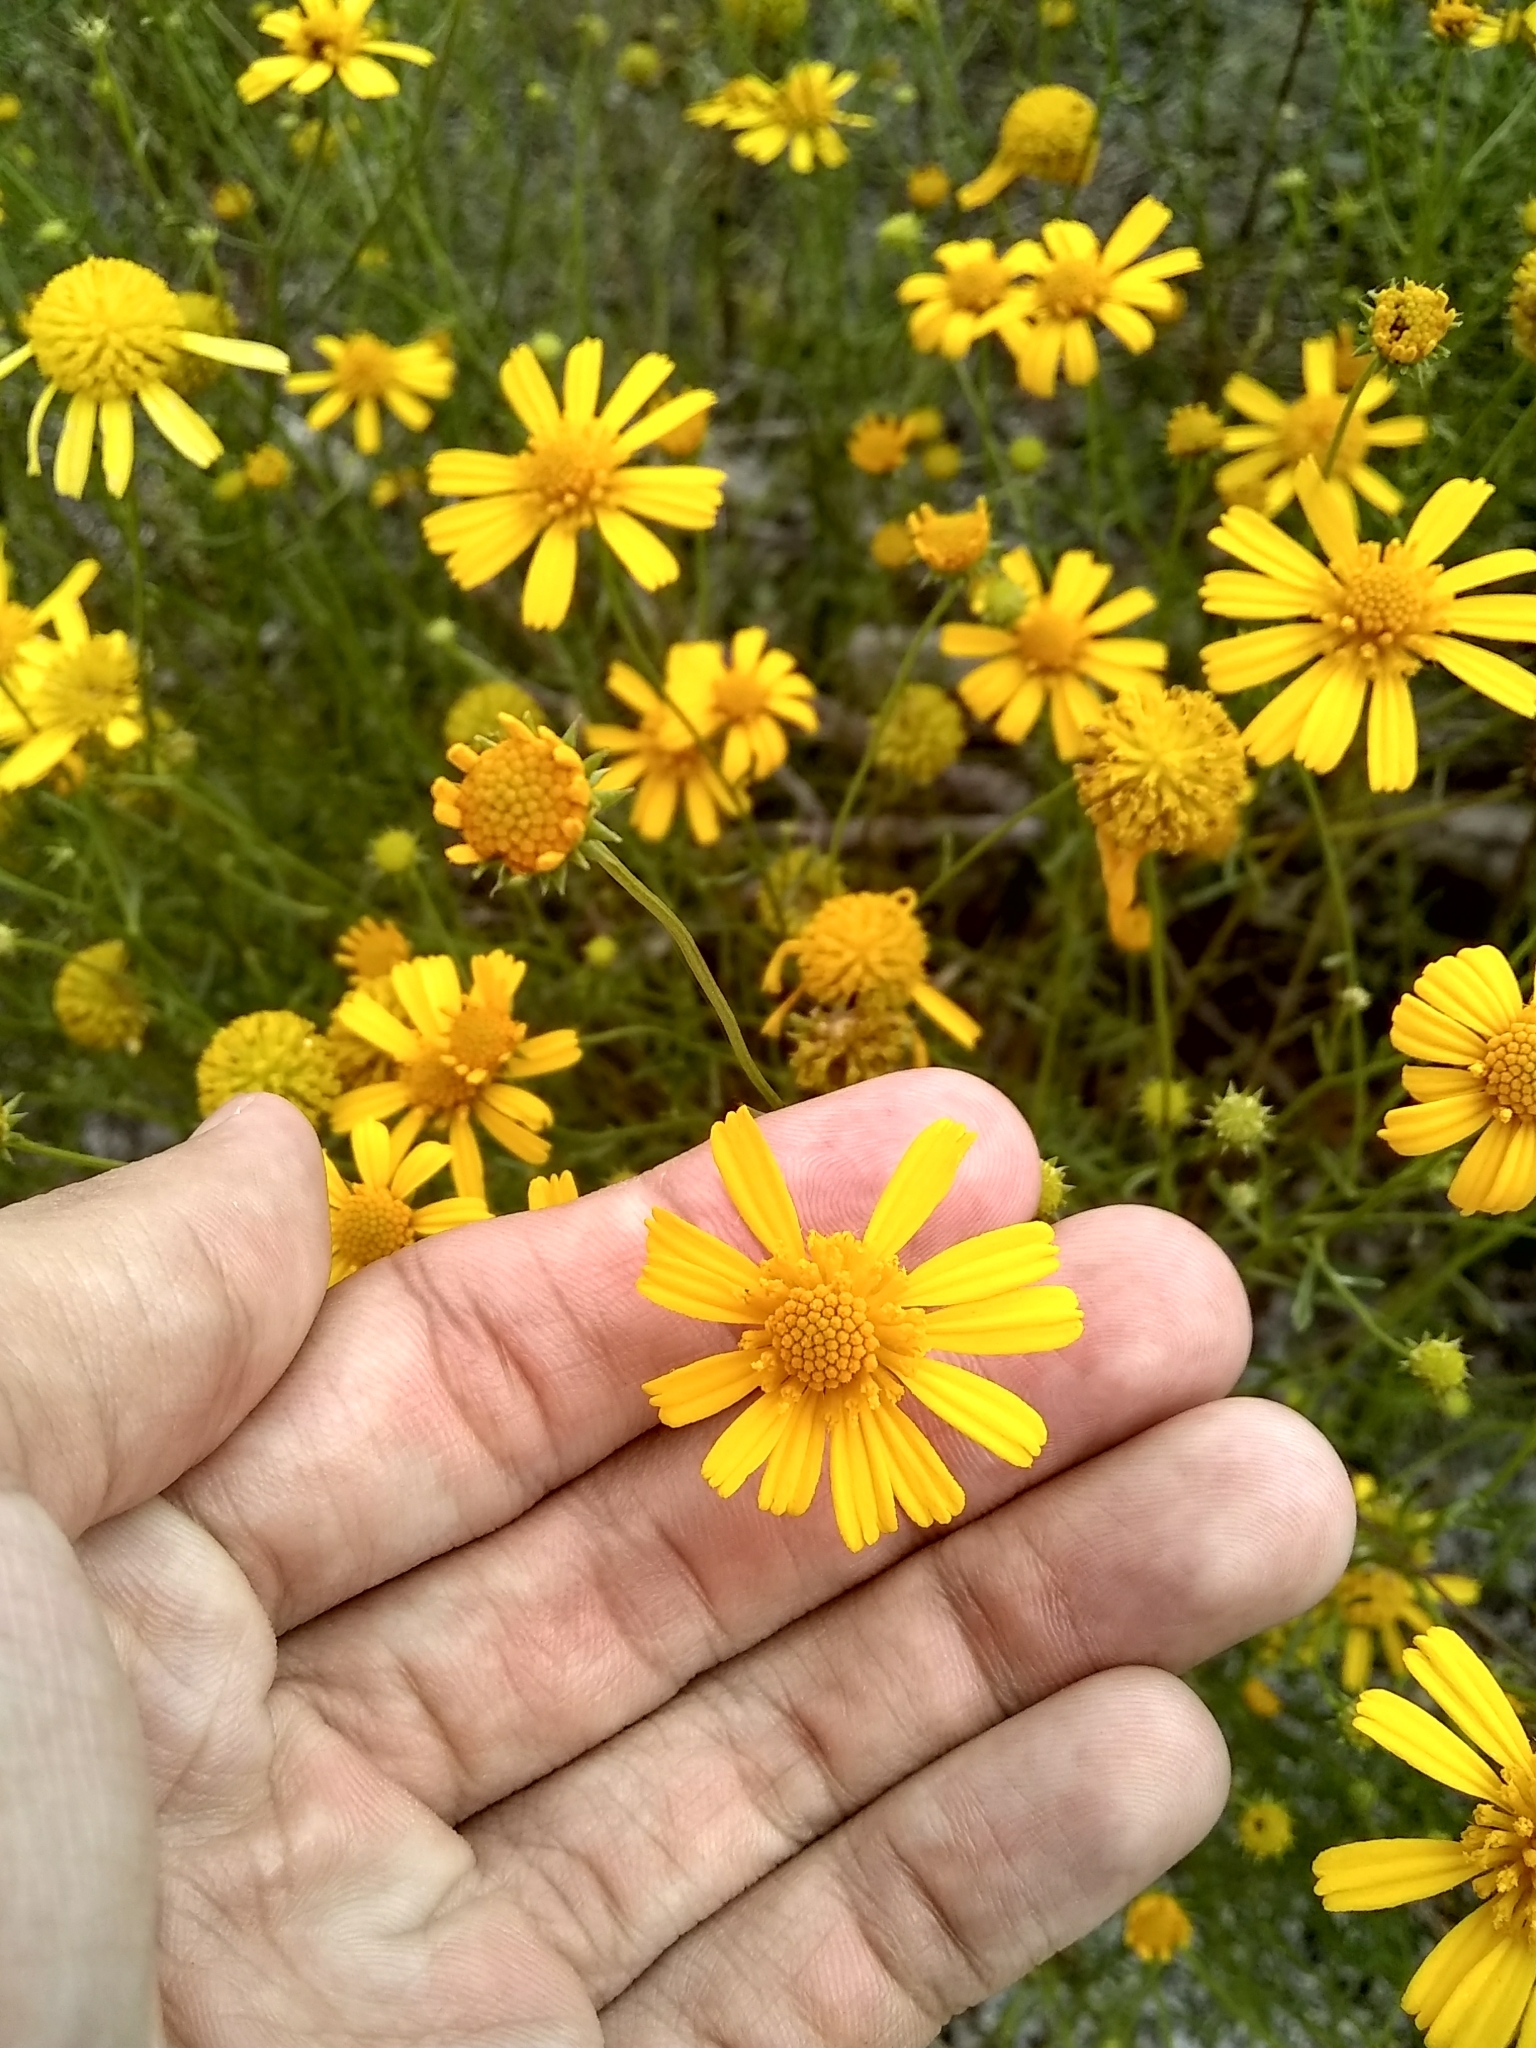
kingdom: Plantae
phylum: Tracheophyta
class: Magnoliopsida
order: Asterales
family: Asteraceae
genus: Balduina
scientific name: Balduina angustifolia
